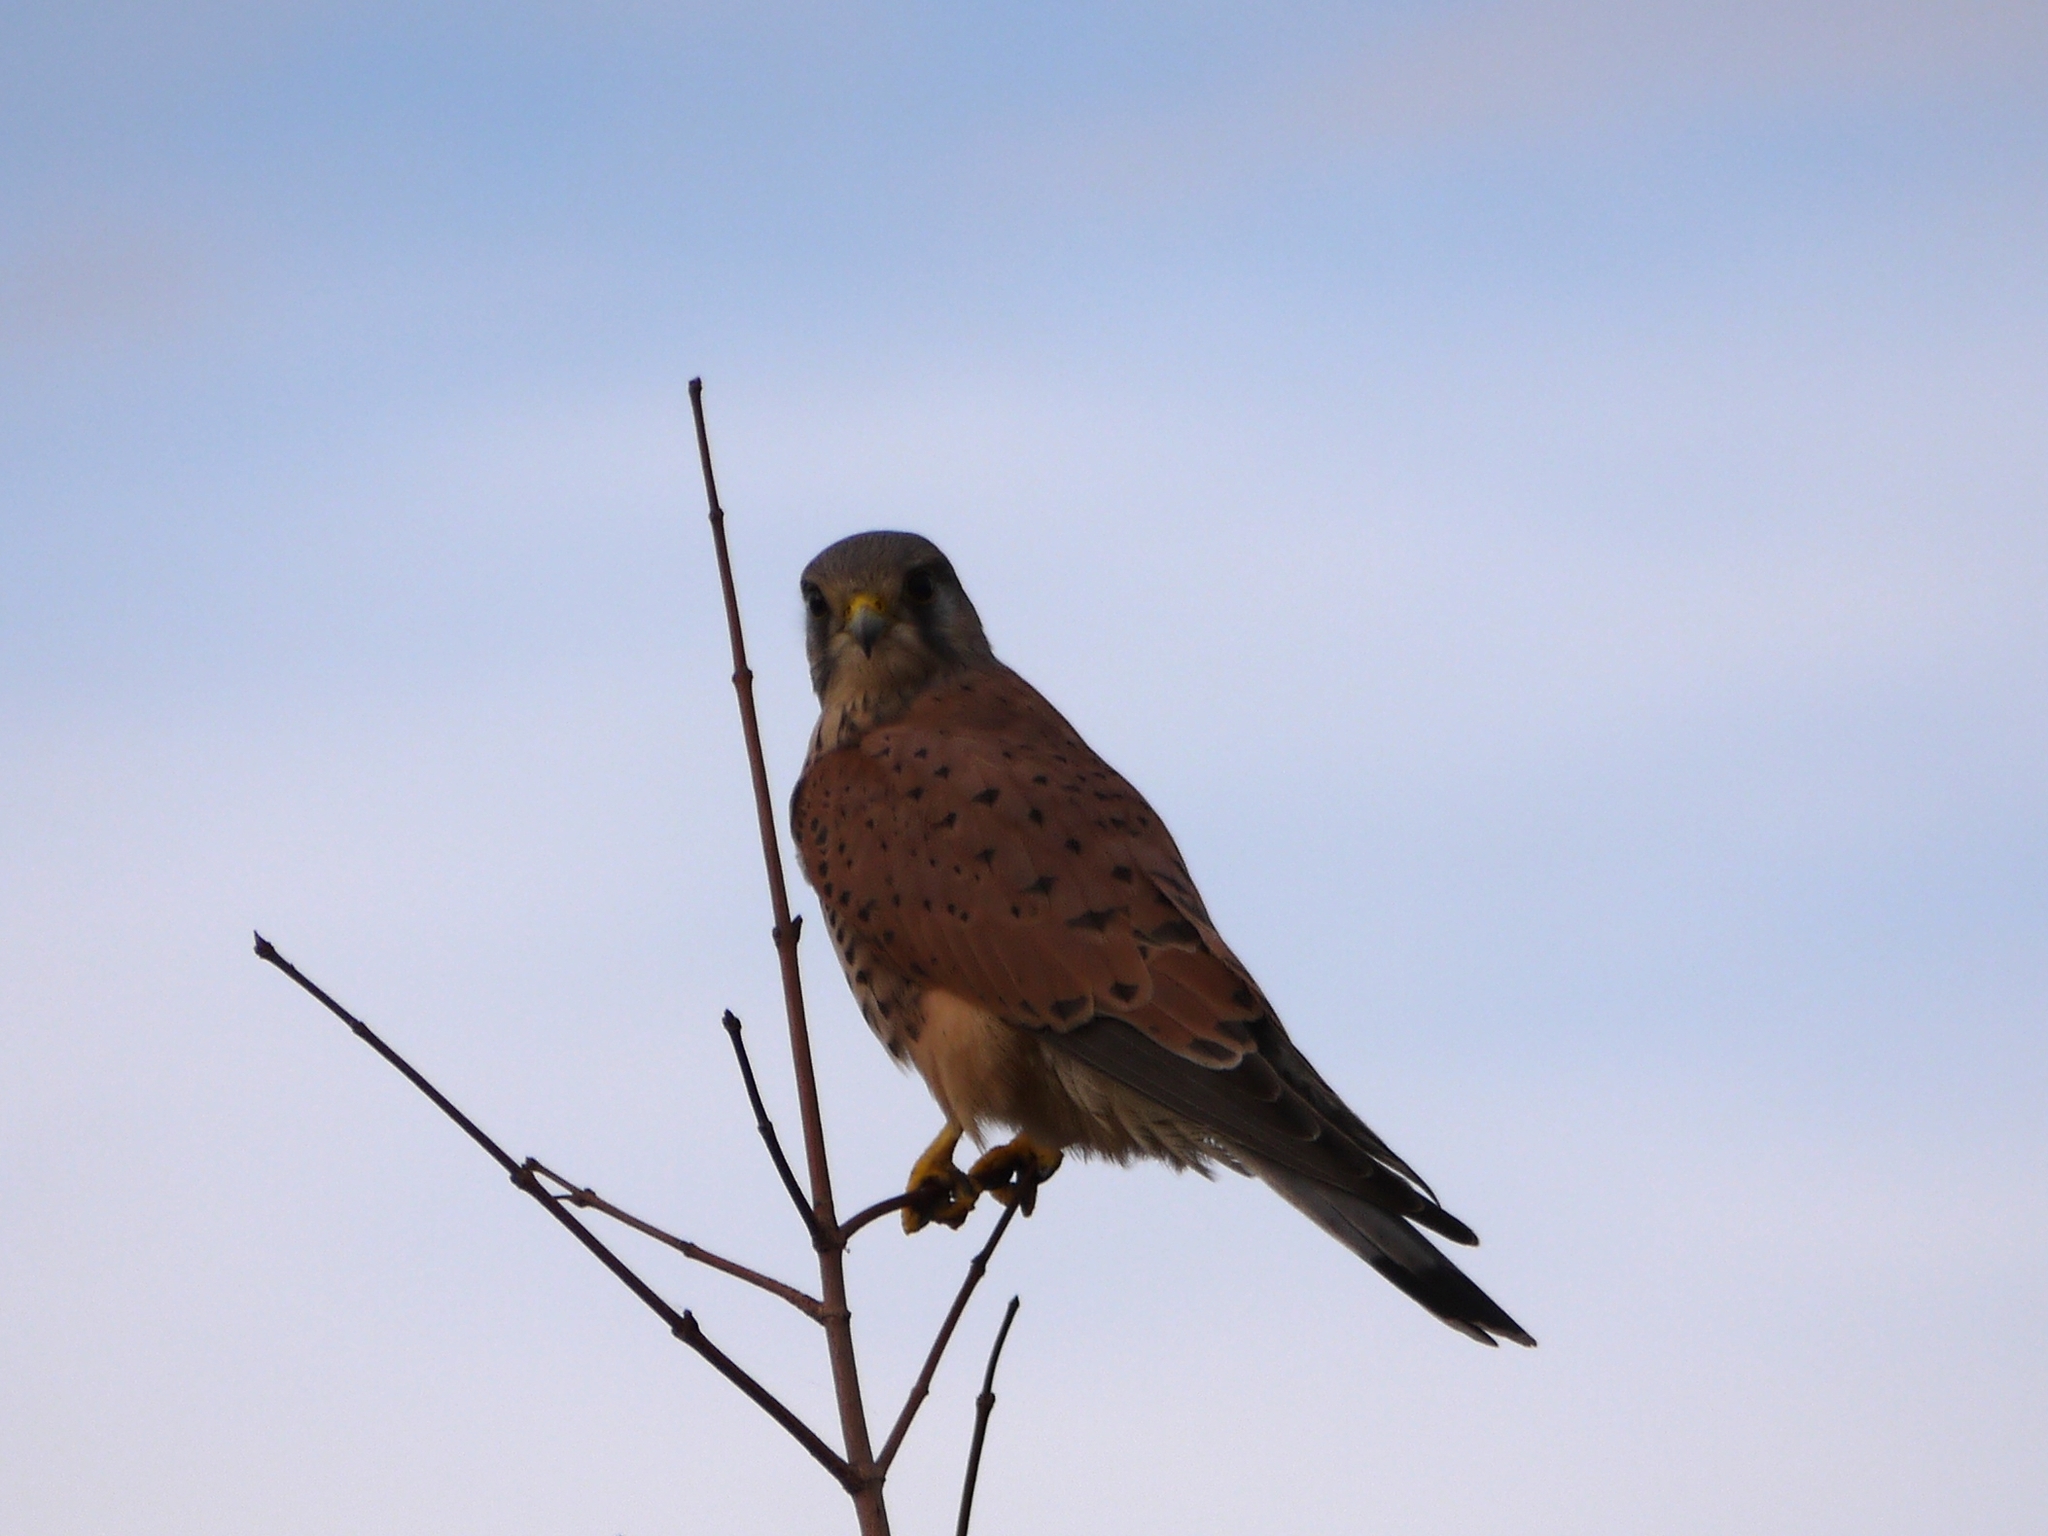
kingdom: Animalia
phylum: Chordata
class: Aves
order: Falconiformes
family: Falconidae
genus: Falco
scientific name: Falco tinnunculus
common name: Common kestrel
